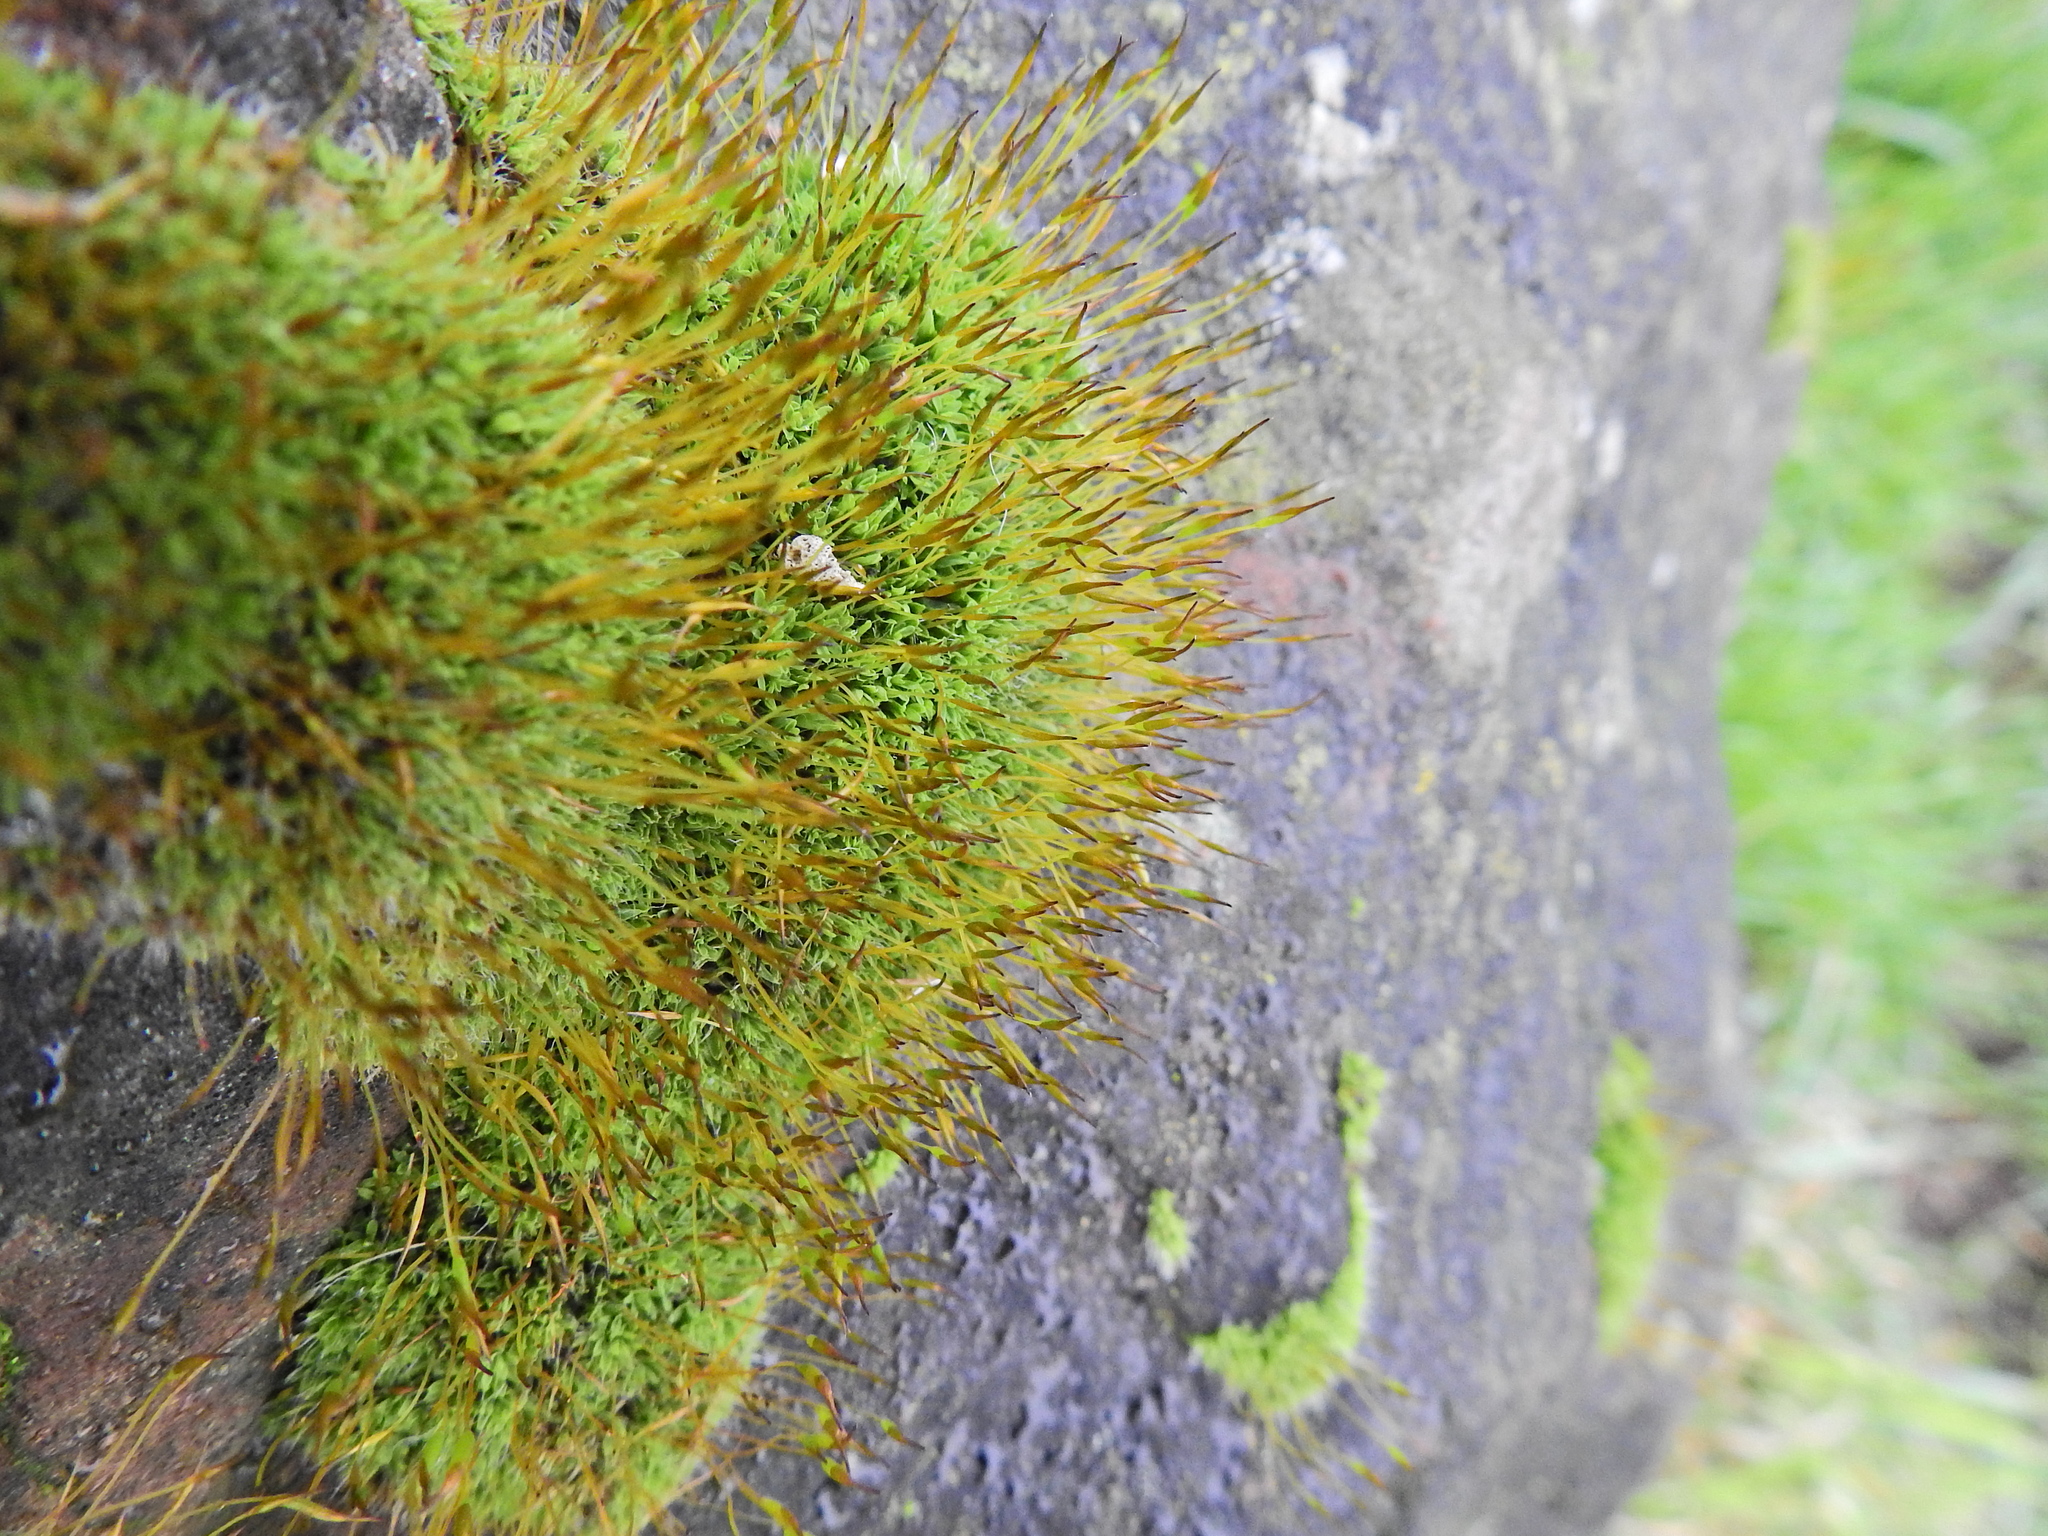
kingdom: Plantae
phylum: Bryophyta
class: Bryopsida
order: Pottiales
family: Pottiaceae
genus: Tortula
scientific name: Tortula muralis
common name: Wall screw-moss
